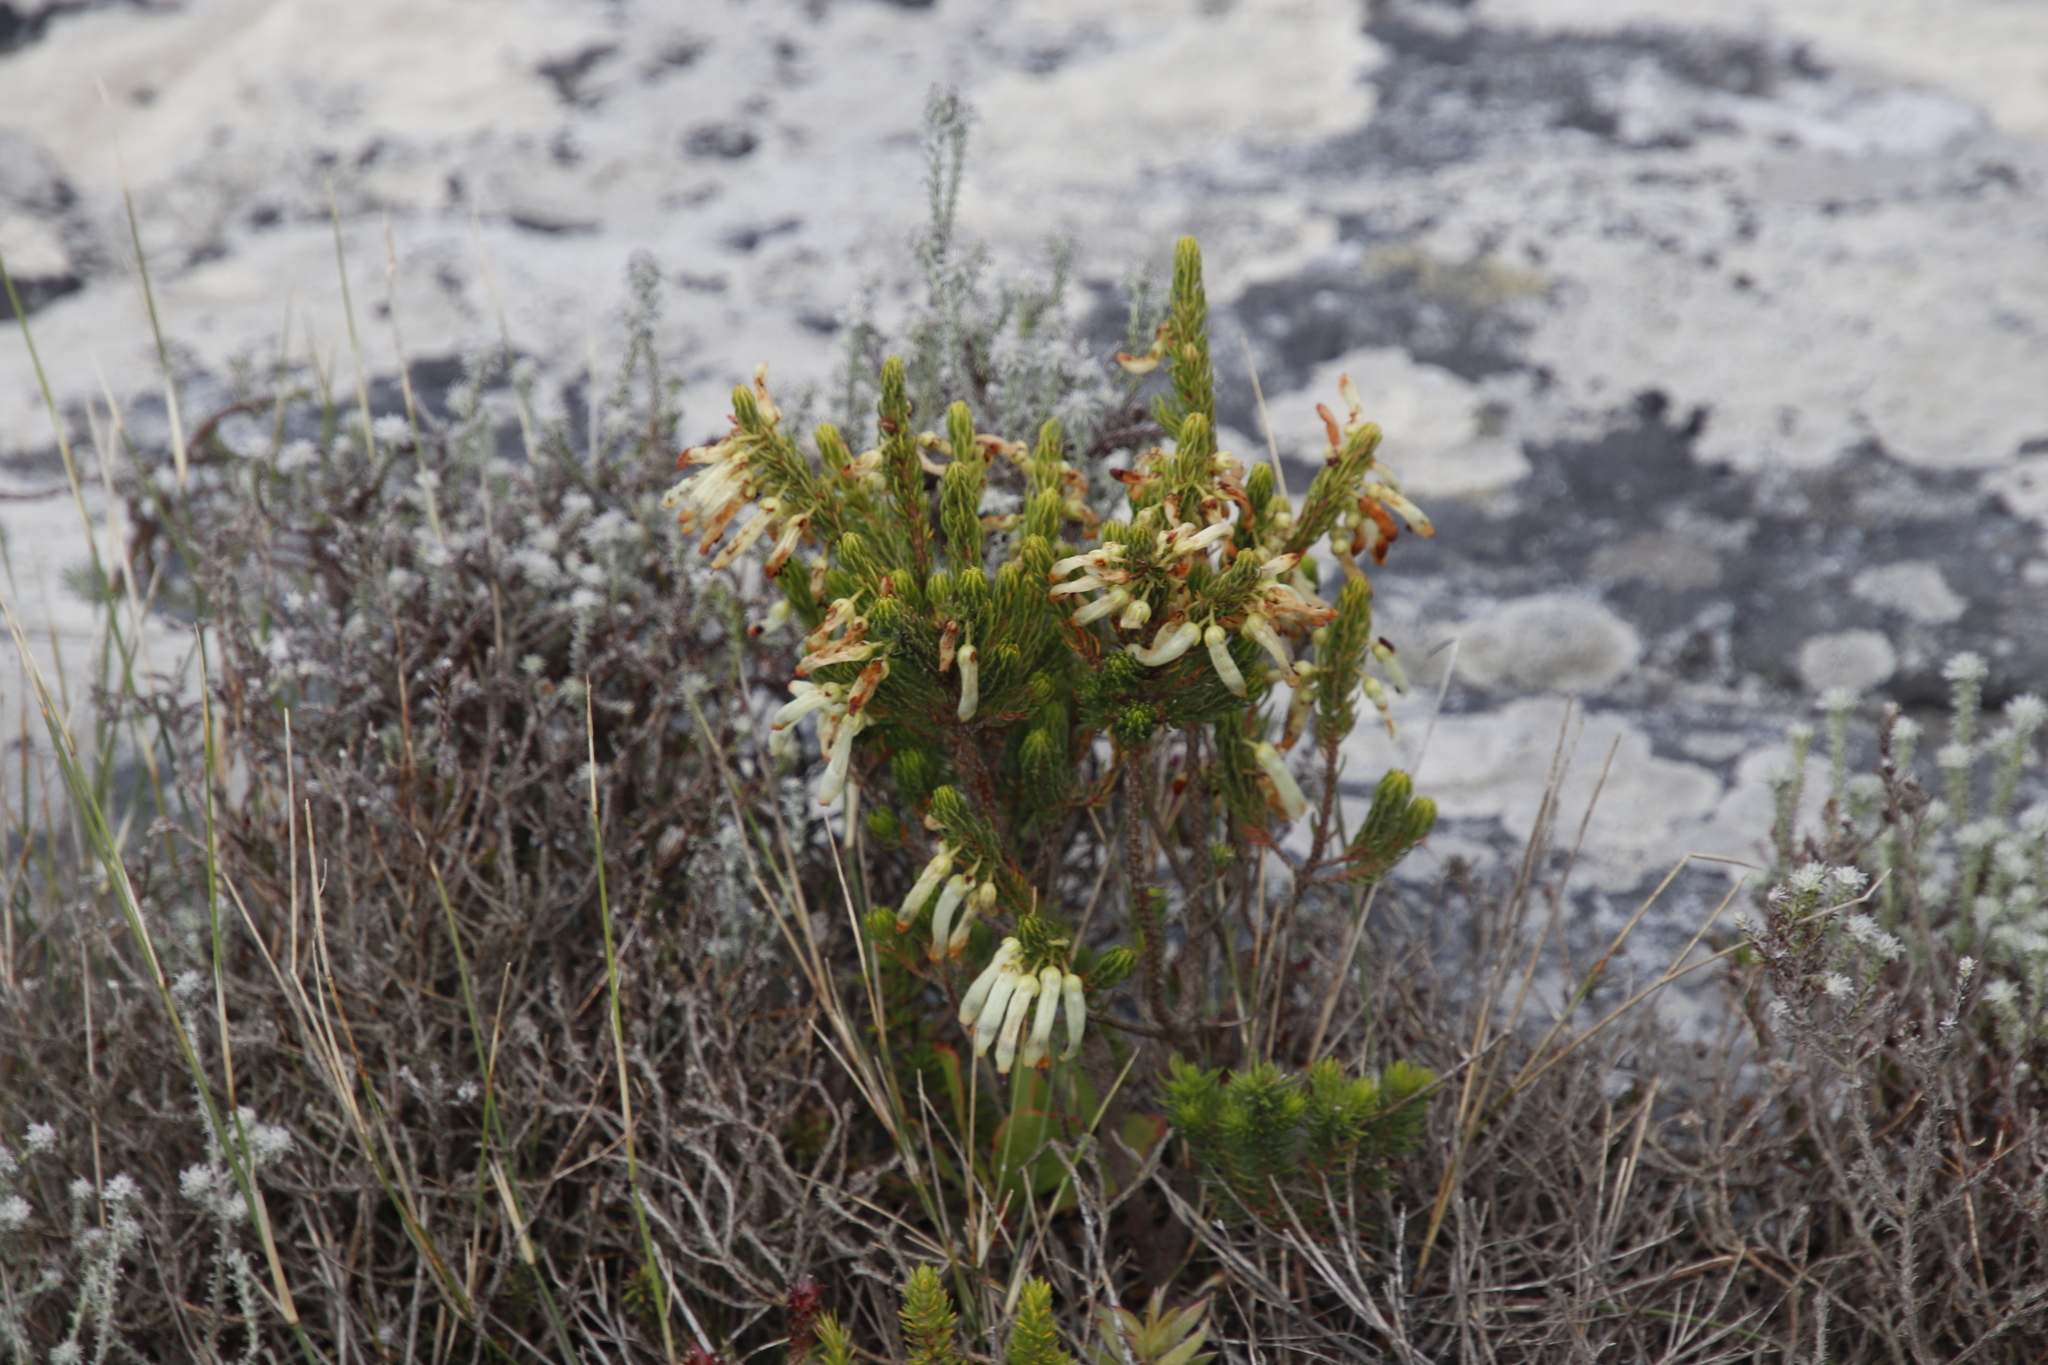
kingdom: Plantae
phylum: Tracheophyta
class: Magnoliopsida
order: Ericales
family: Ericaceae
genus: Erica
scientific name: Erica mammosa
